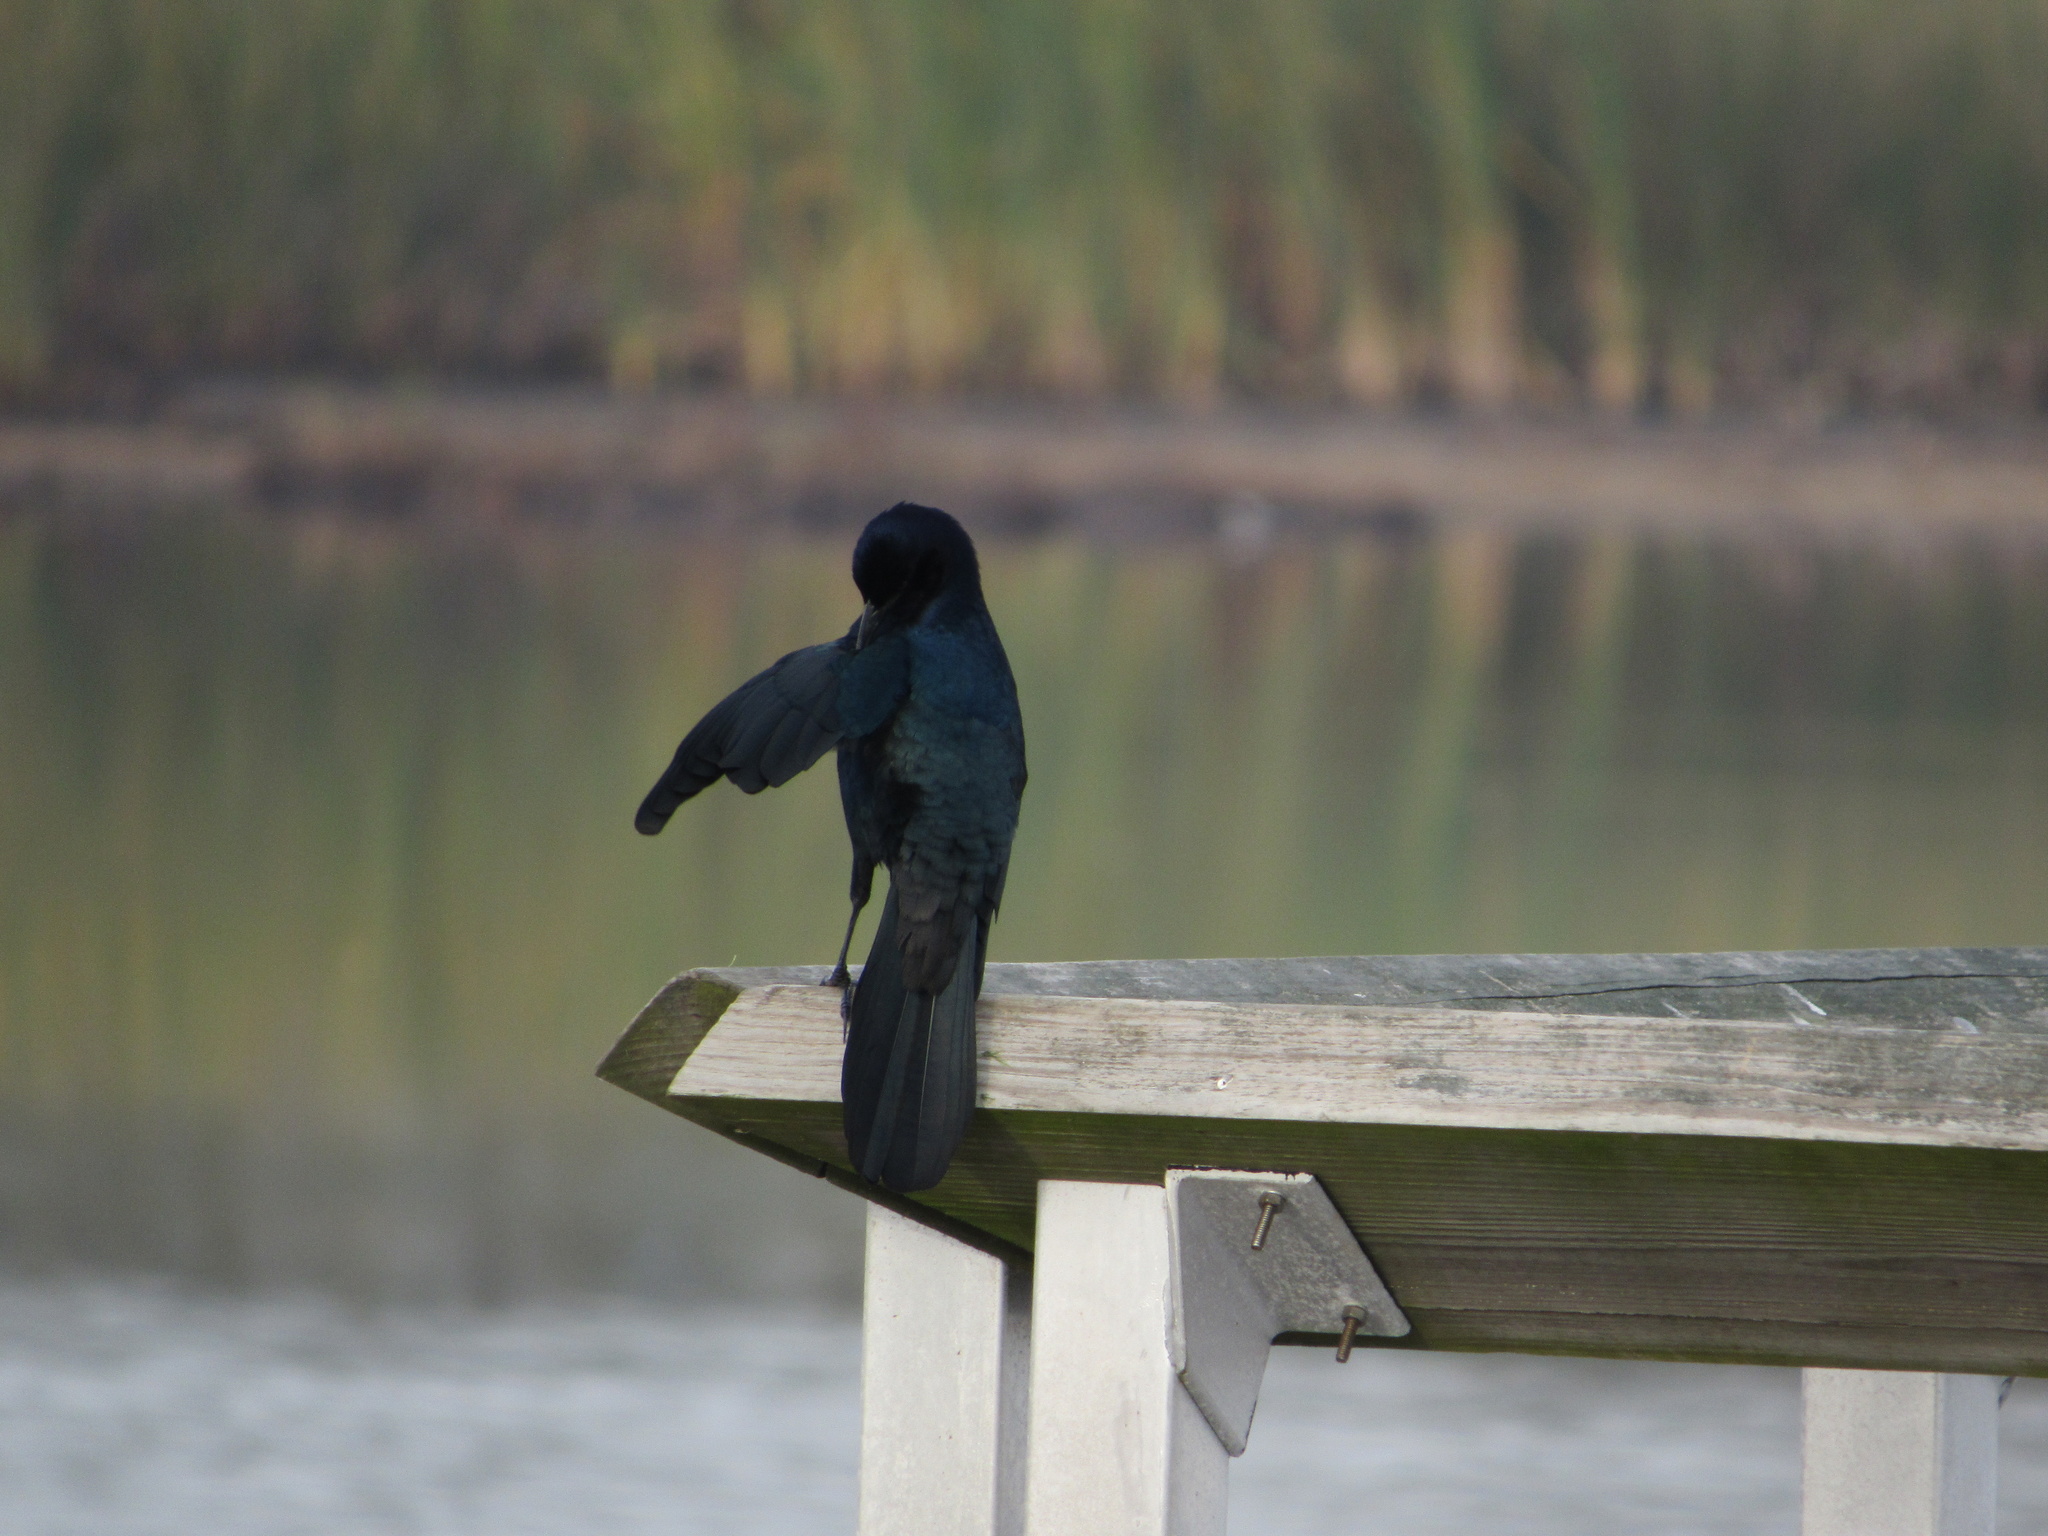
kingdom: Animalia
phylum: Chordata
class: Aves
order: Passeriformes
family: Icteridae
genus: Quiscalus
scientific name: Quiscalus major
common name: Boat-tailed grackle
